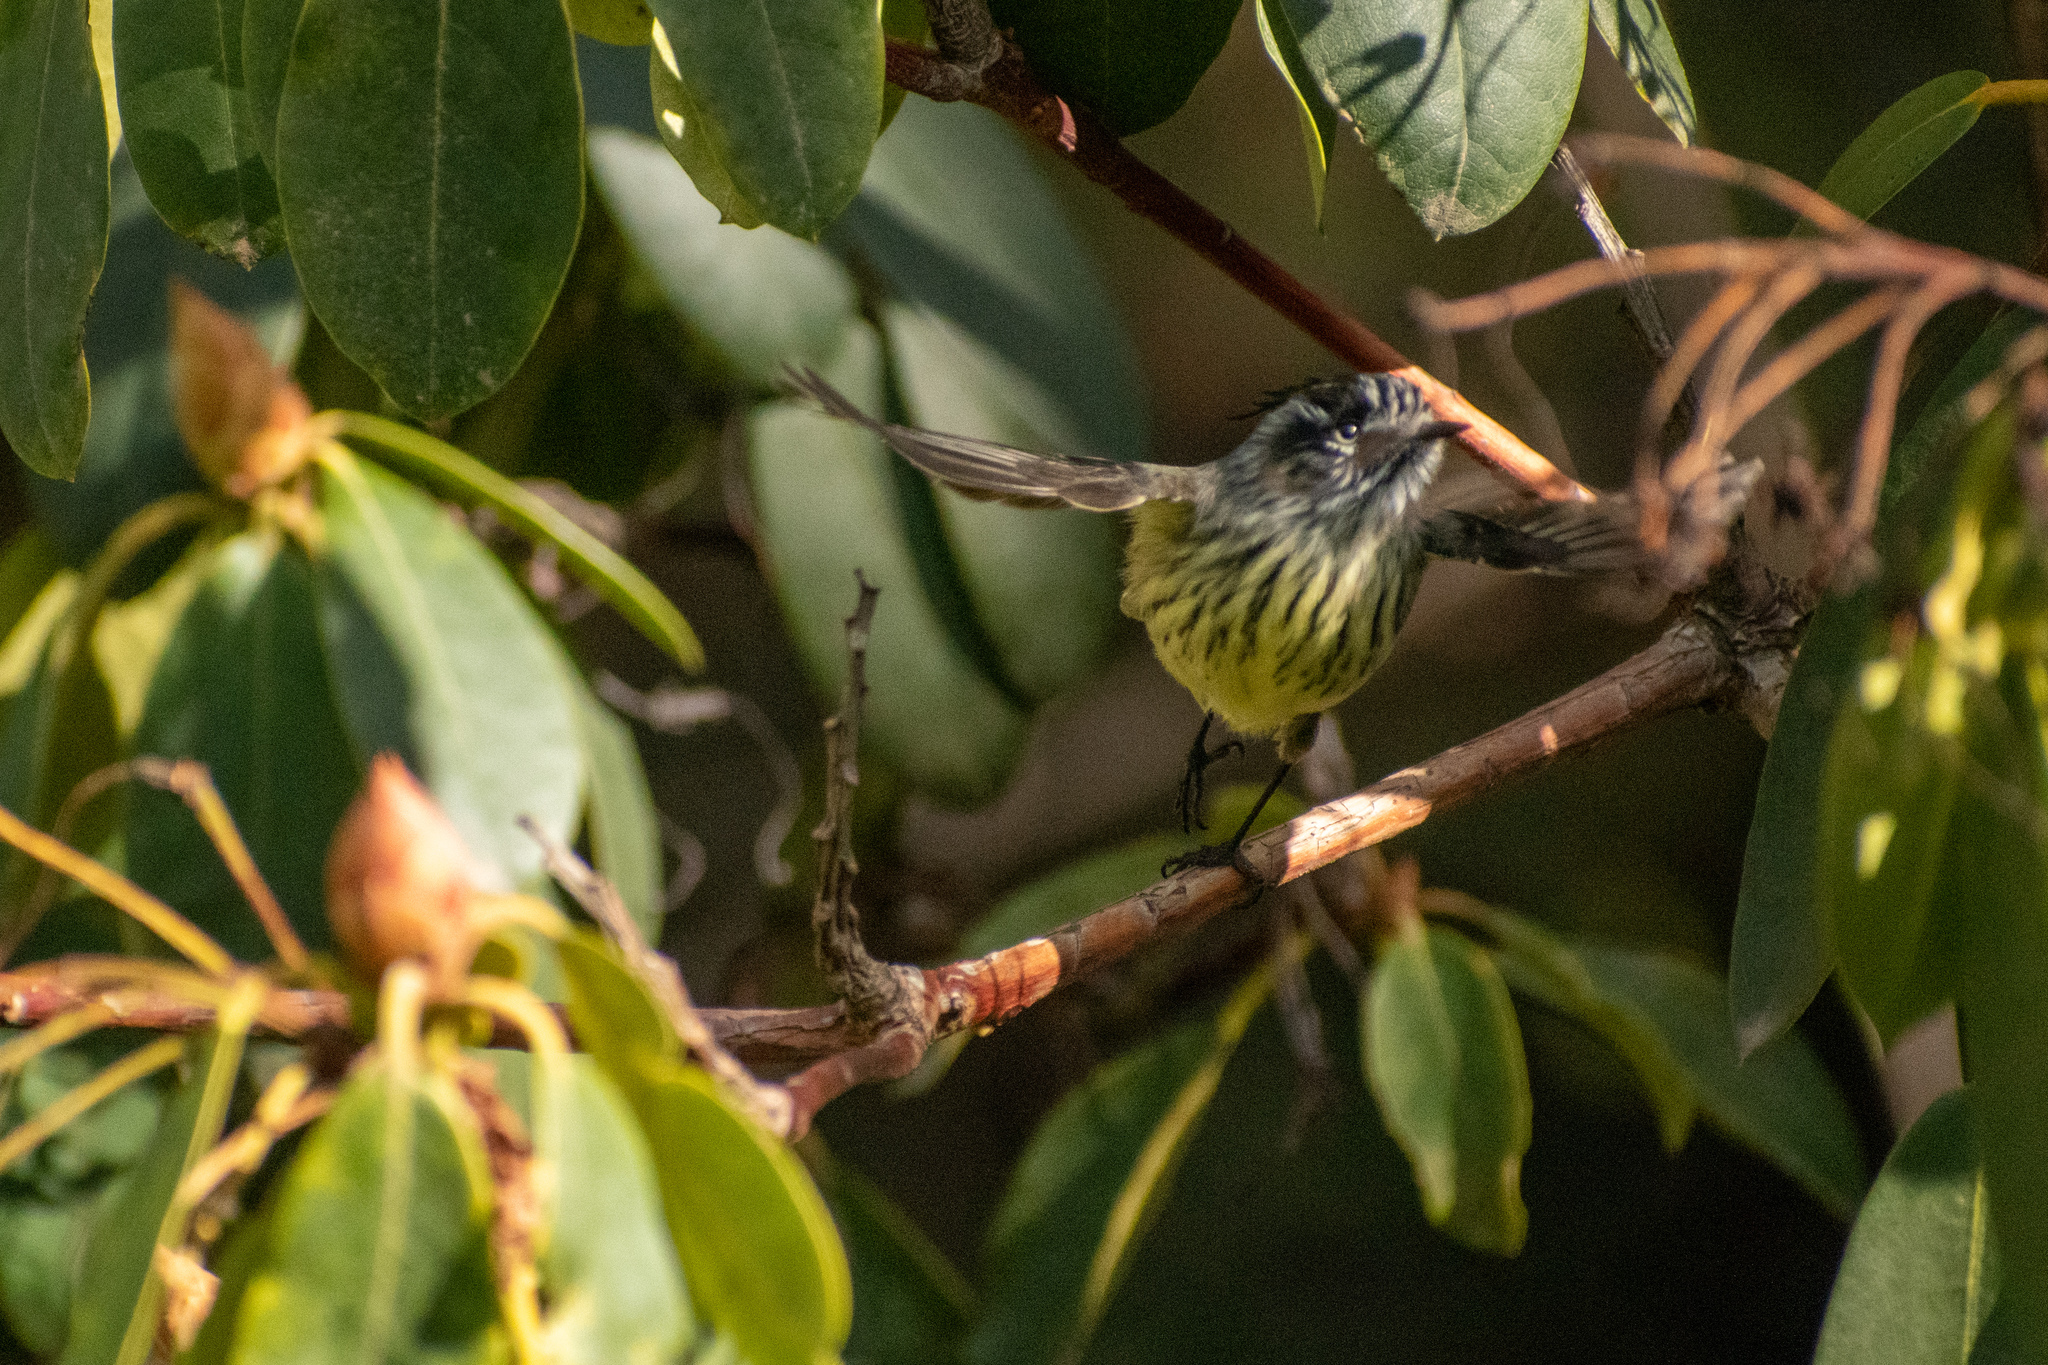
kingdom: Animalia
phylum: Chordata
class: Aves
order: Passeriformes
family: Tyrannidae
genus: Anairetes
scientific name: Anairetes parulus
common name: Tufted tit-tyrant
